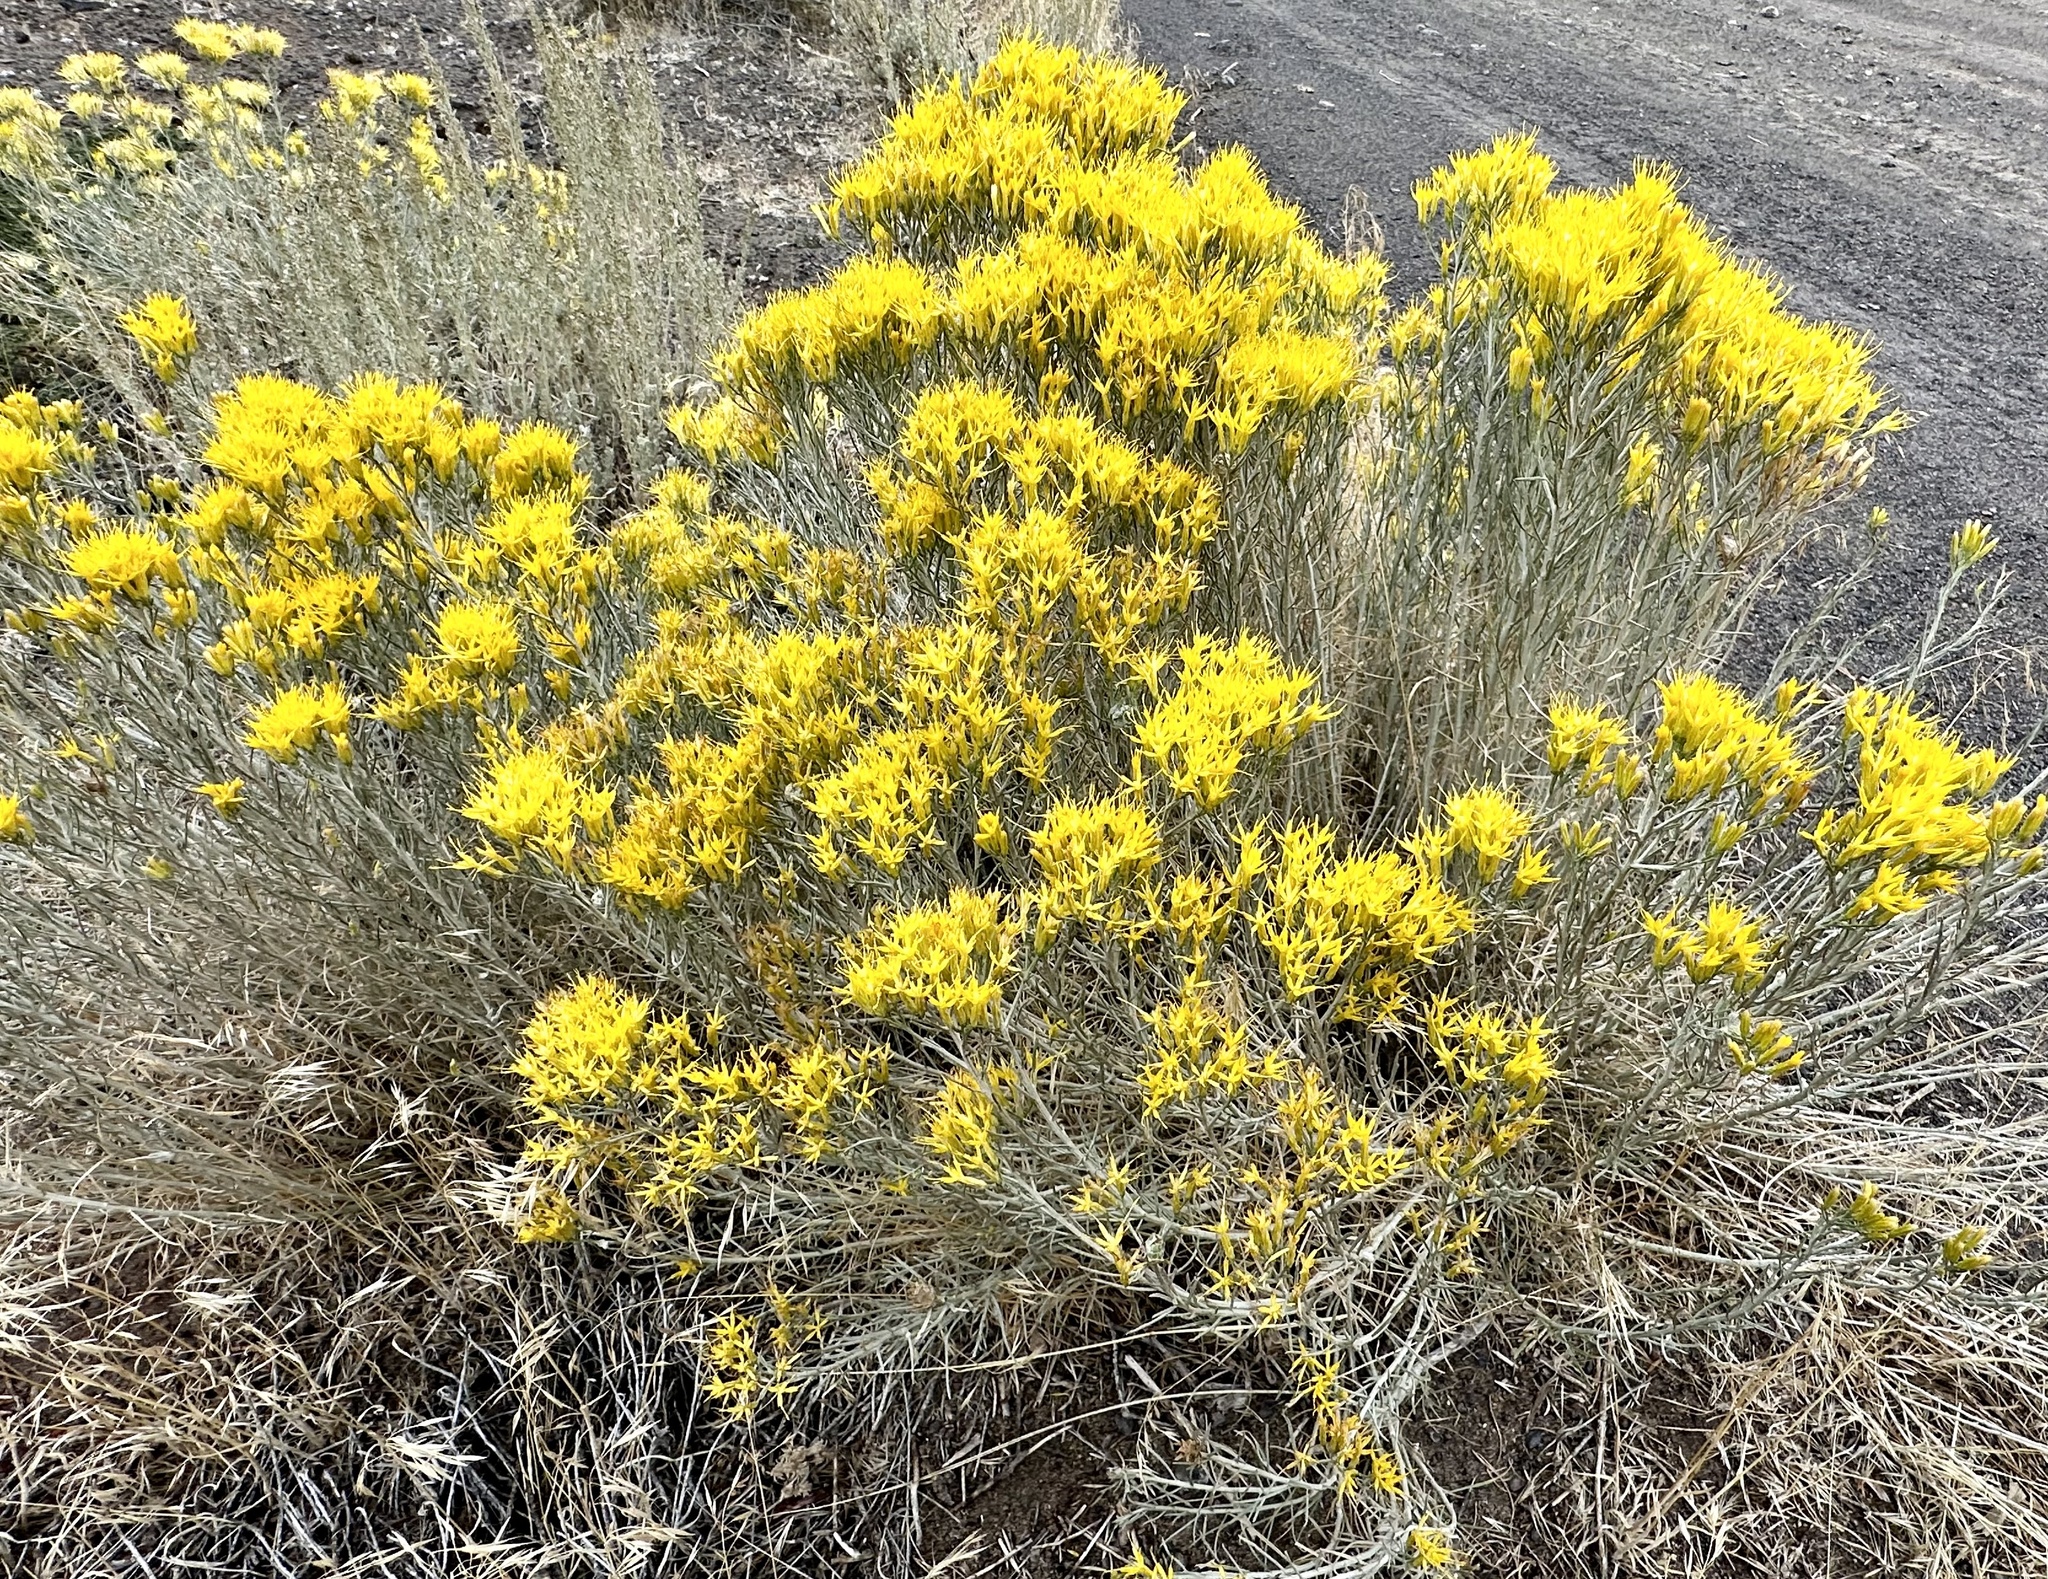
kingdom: Plantae
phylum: Tracheophyta
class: Magnoliopsida
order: Asterales
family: Asteraceae
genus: Ericameria
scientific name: Ericameria nauseosa
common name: Rubber rabbitbrush
